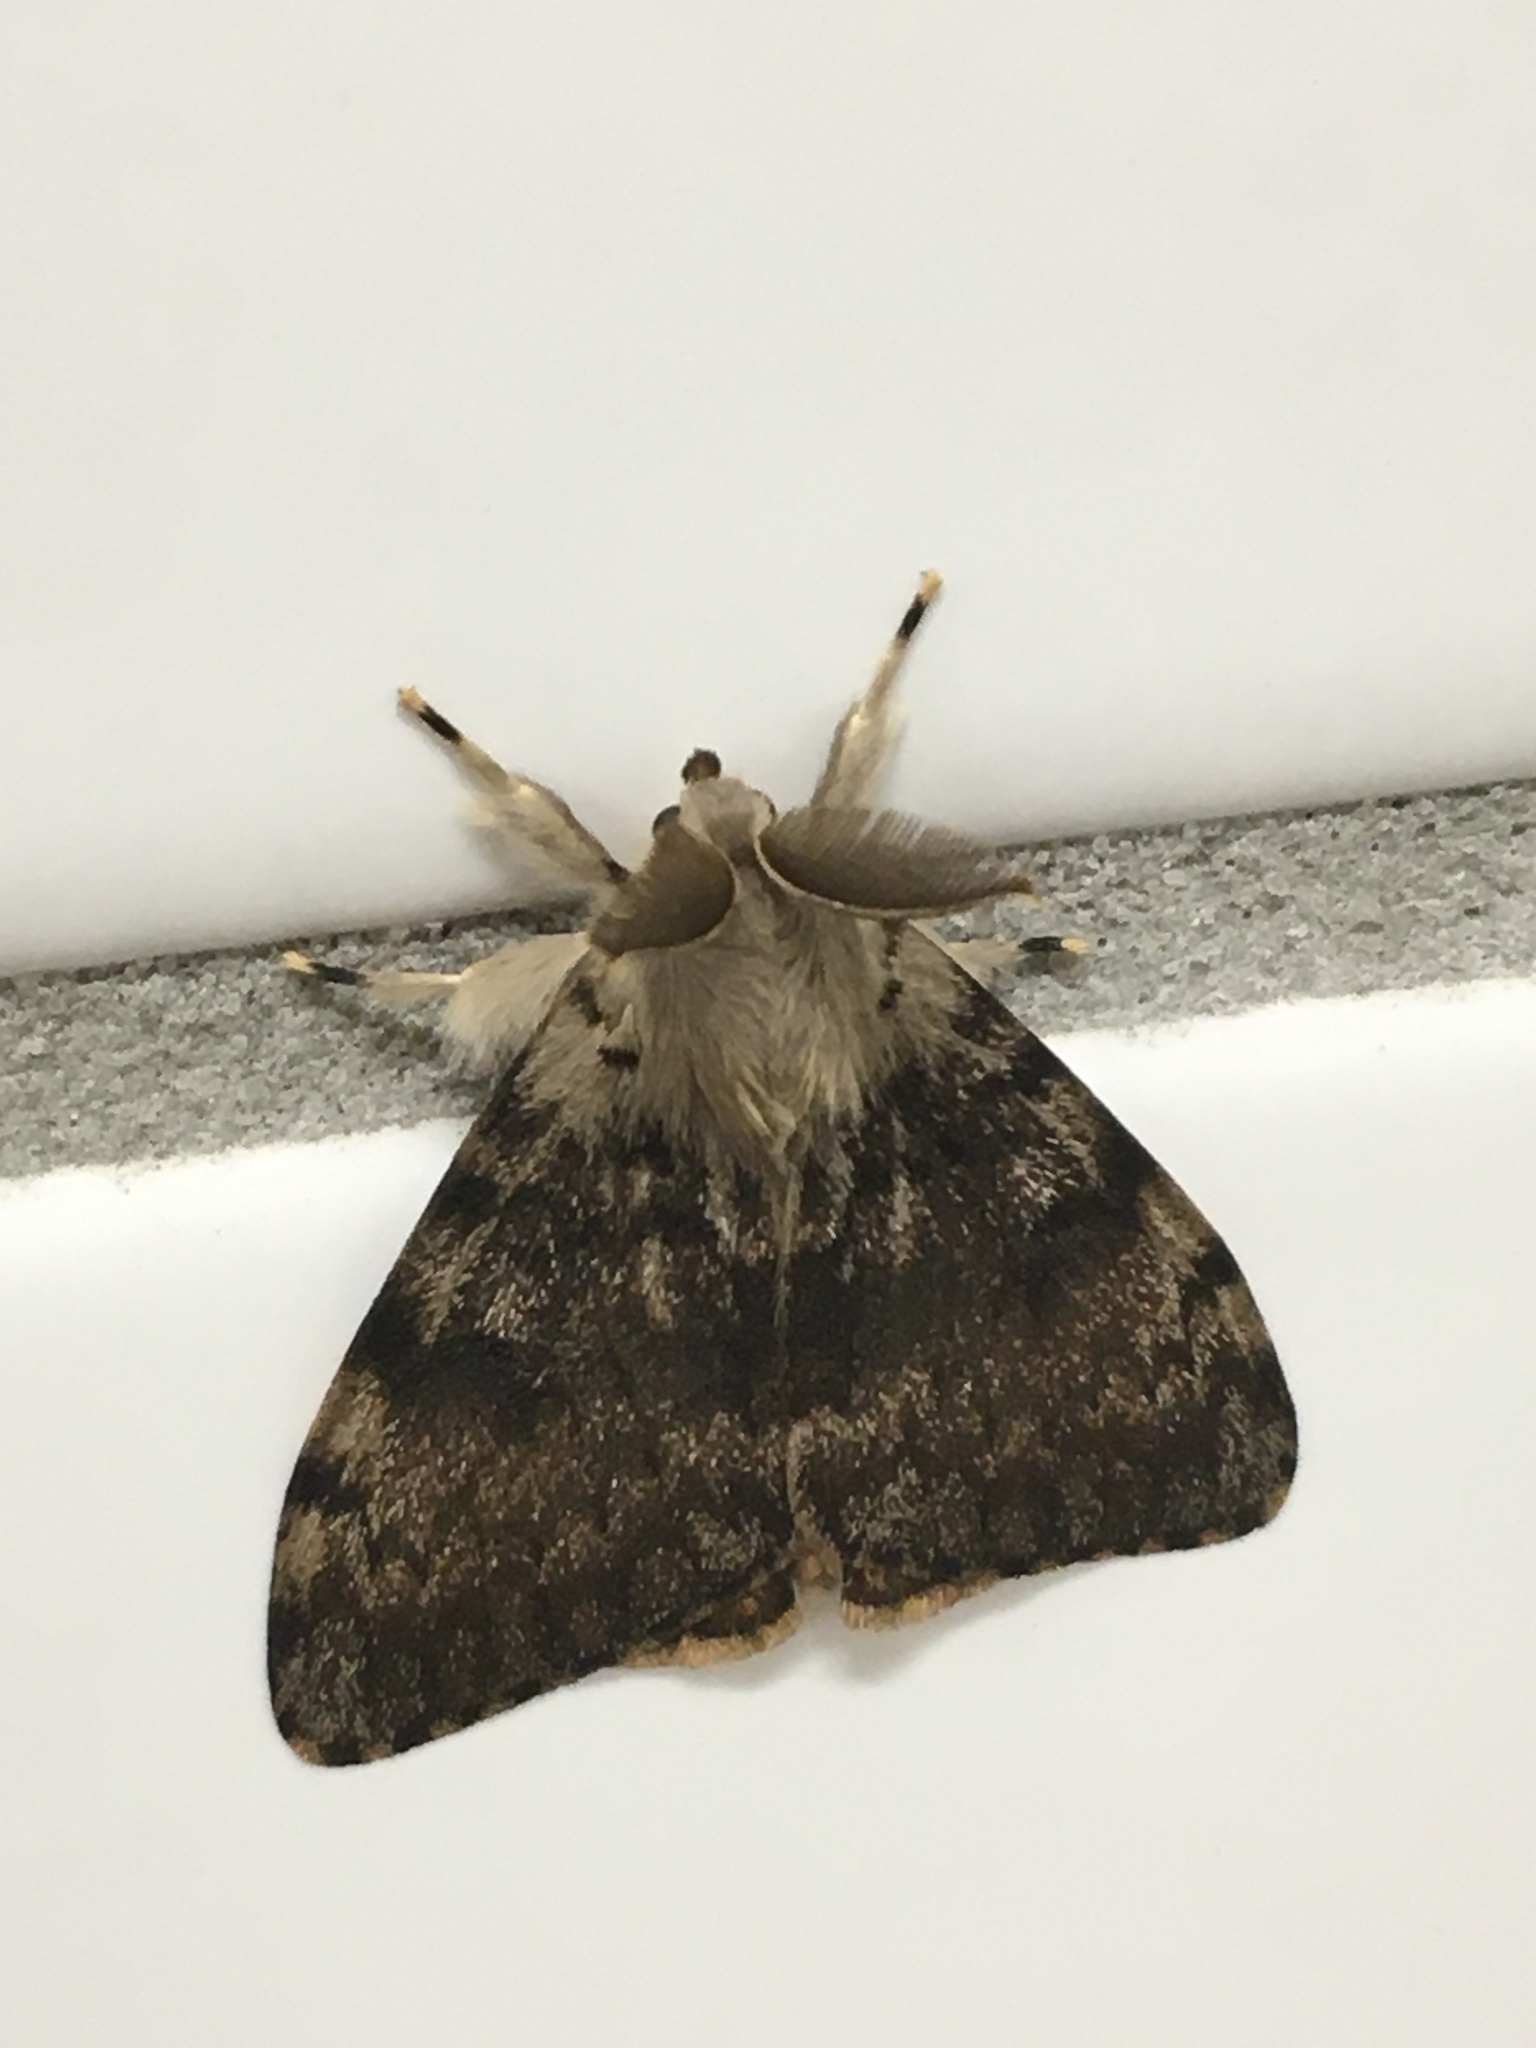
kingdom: Animalia
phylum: Arthropoda
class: Insecta
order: Lepidoptera
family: Erebidae
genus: Lymantria
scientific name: Lymantria dispar
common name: Gypsy moth
